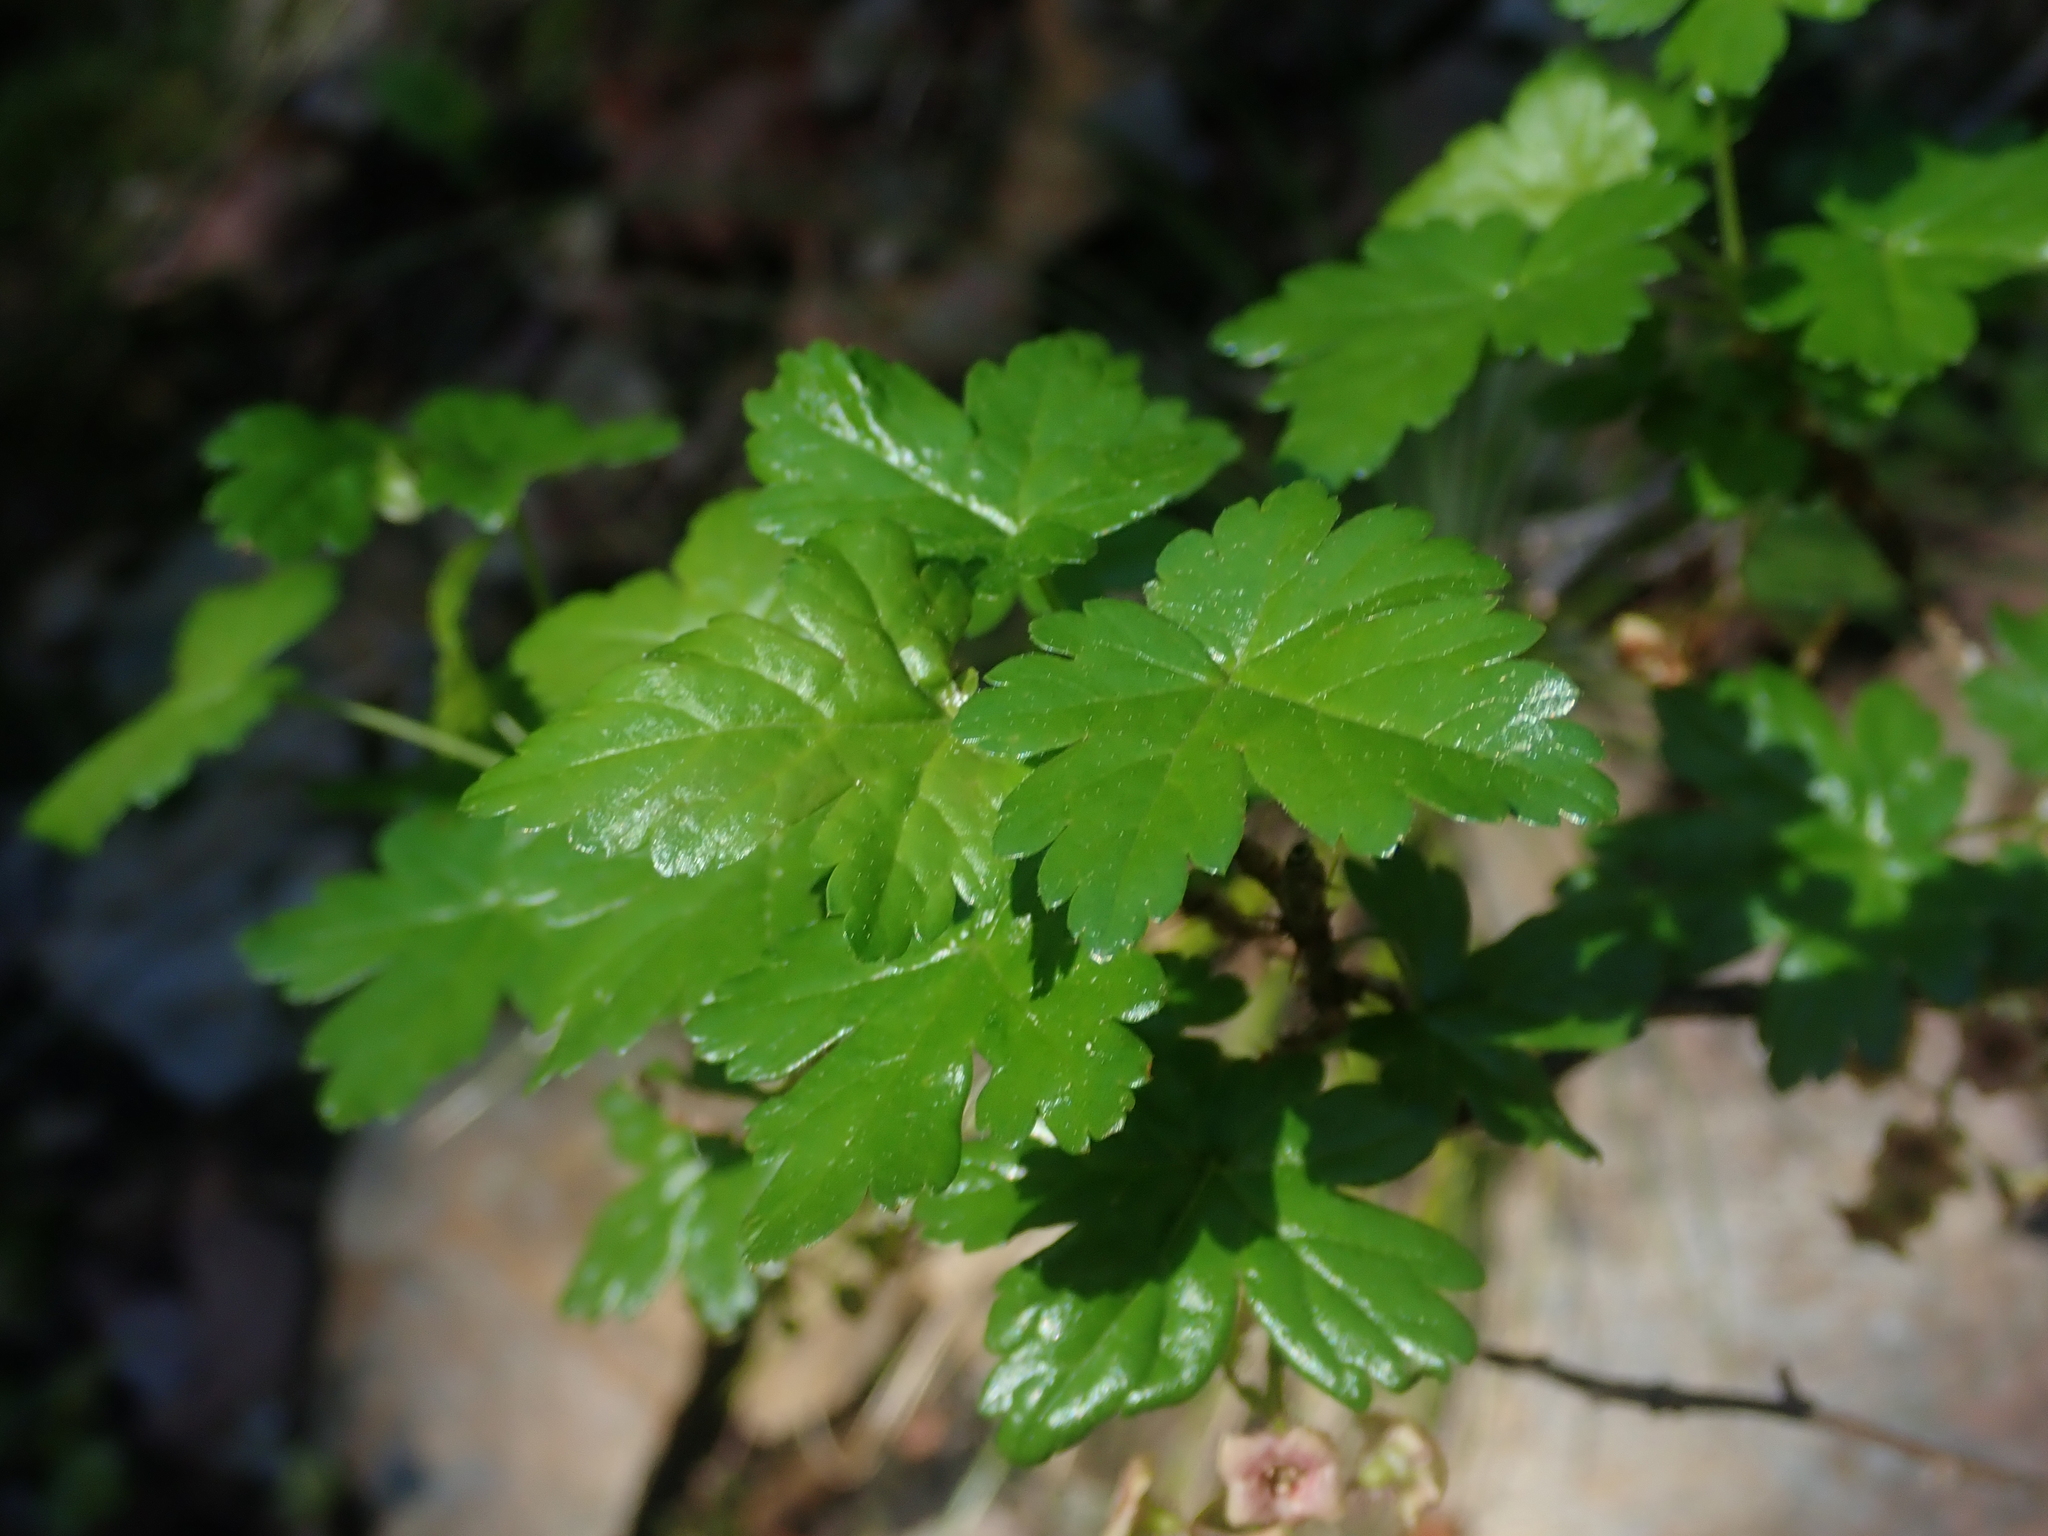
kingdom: Plantae
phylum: Tracheophyta
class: Magnoliopsida
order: Saxifragales
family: Grossulariaceae
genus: Ribes
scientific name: Ribes lacustre
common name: Black gooseberry
